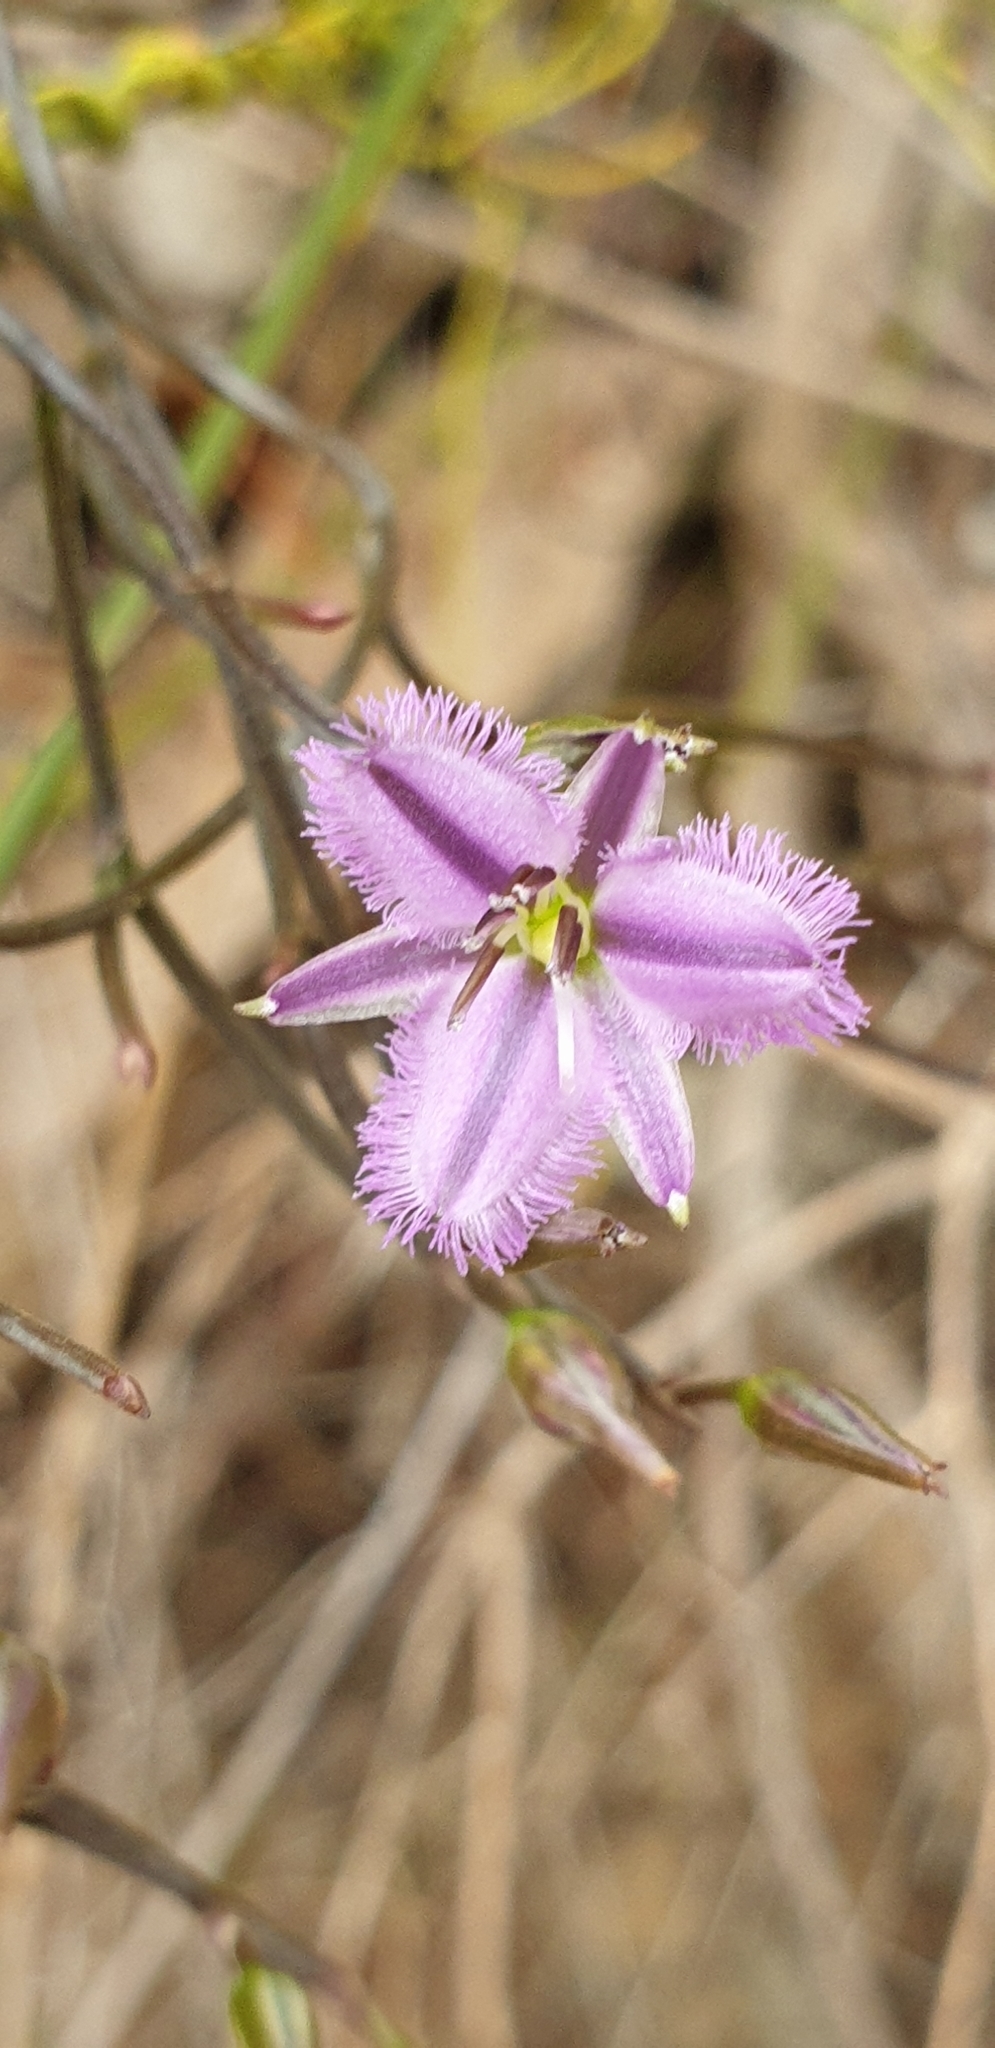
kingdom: Plantae
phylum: Tracheophyta
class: Liliopsida
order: Asparagales
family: Asparagaceae
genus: Thysanotus
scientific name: Thysanotus patersonii
